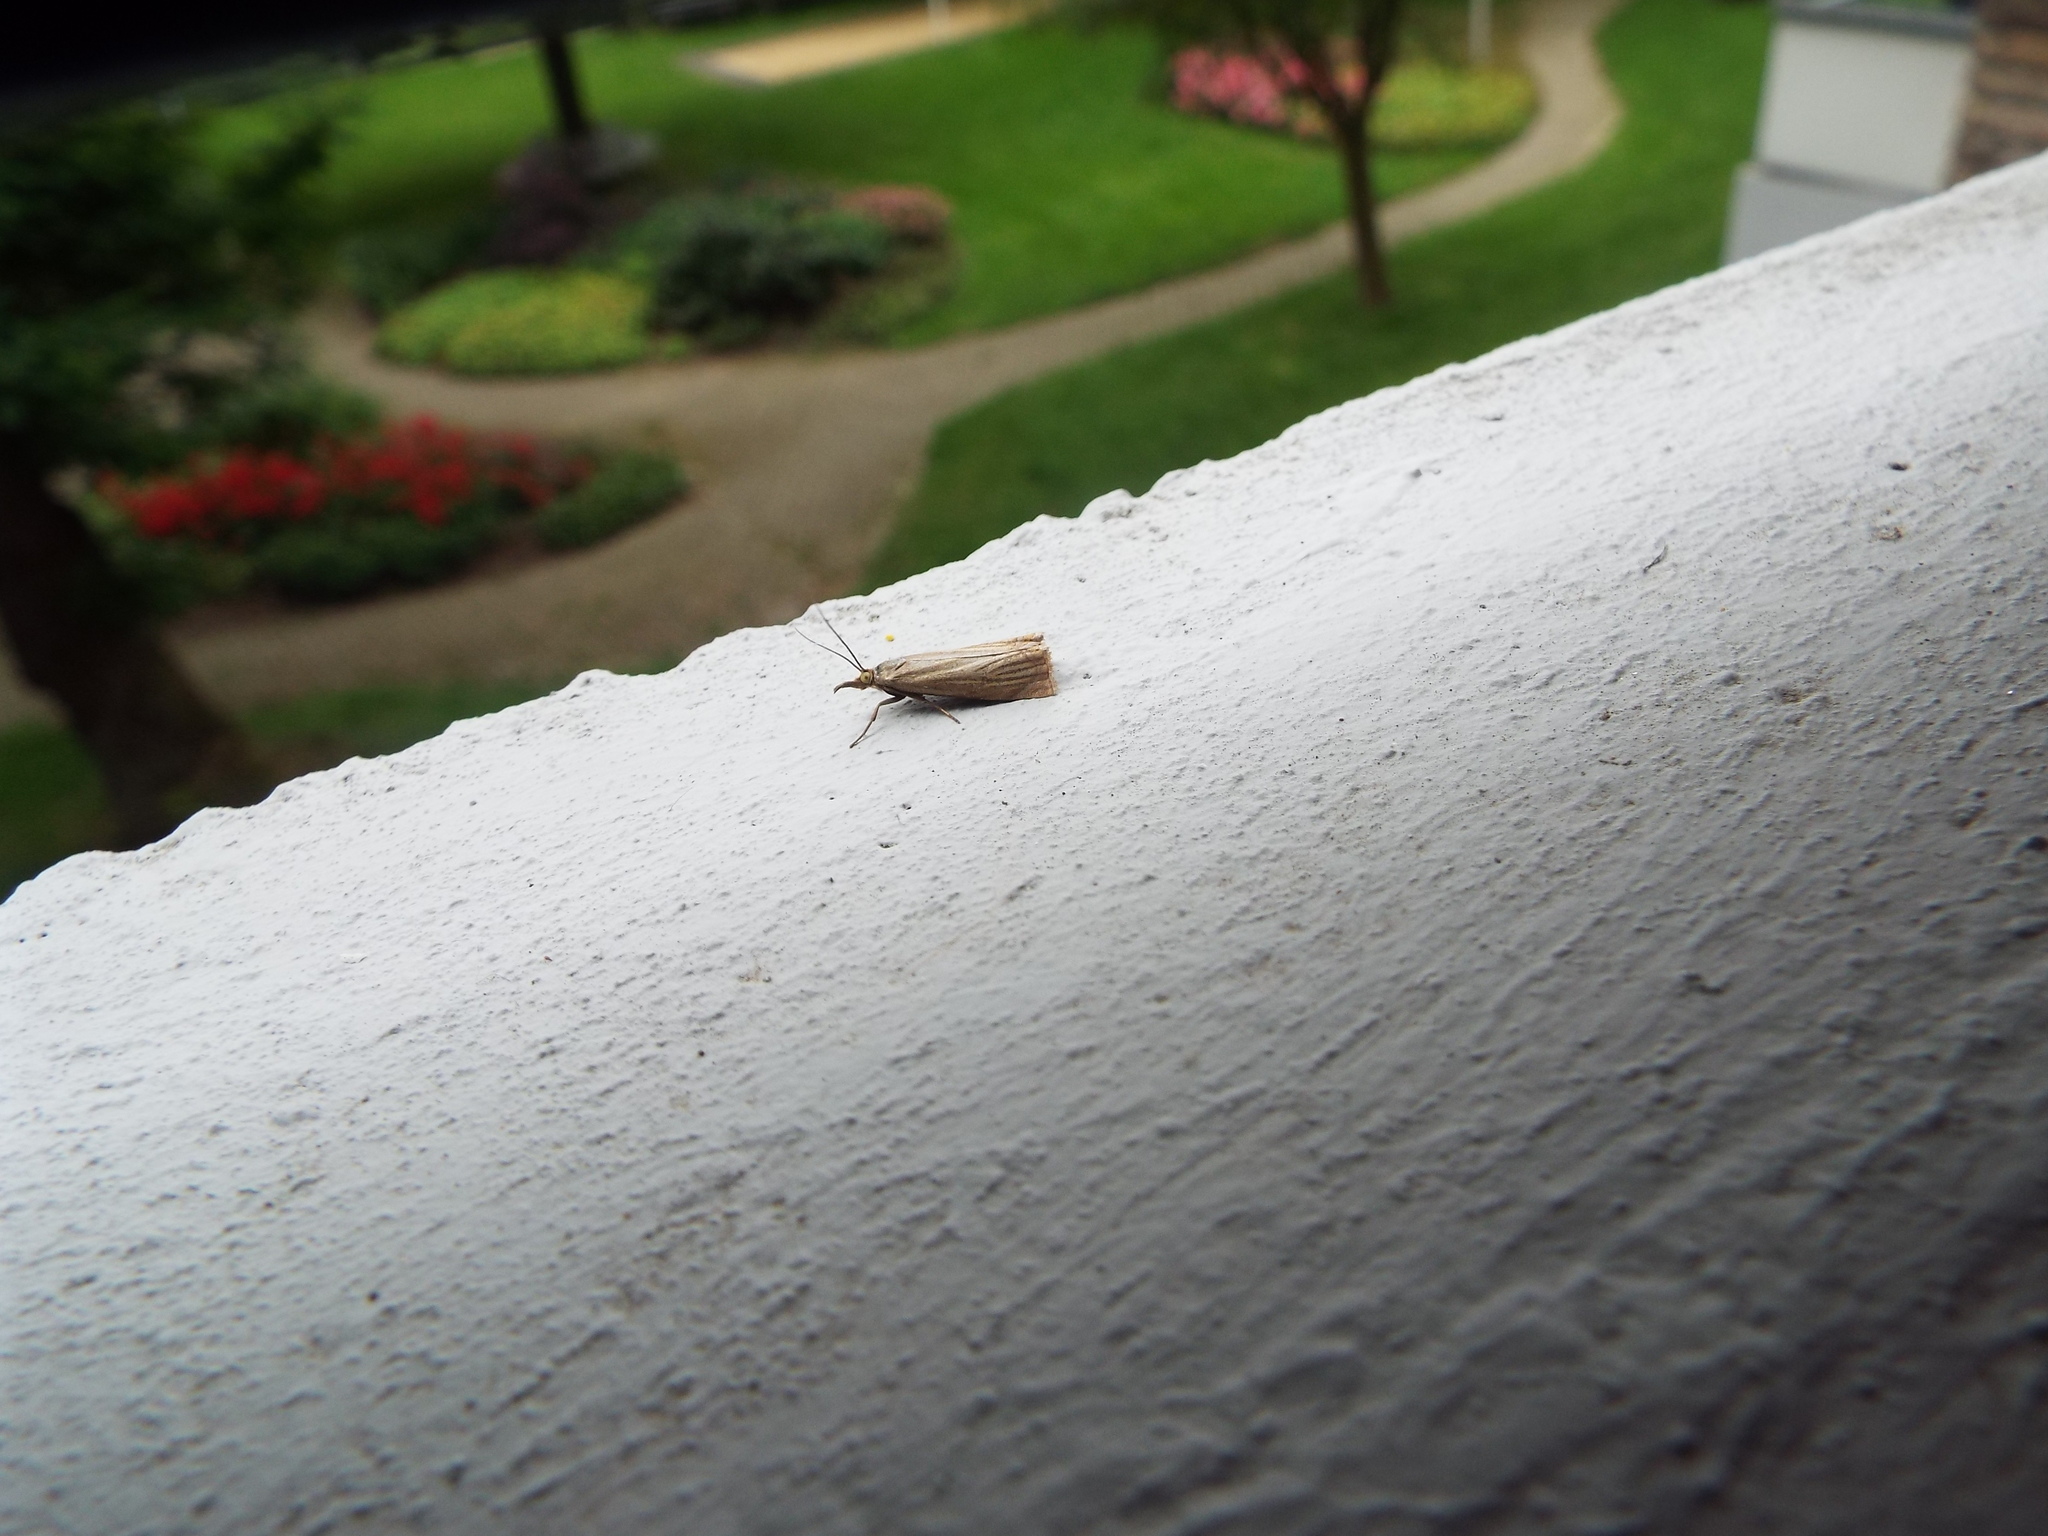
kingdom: Animalia
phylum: Arthropoda
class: Insecta
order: Lepidoptera
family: Crambidae
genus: Chrysoteuchia
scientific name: Chrysoteuchia culmella
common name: Garden grass-veneer
